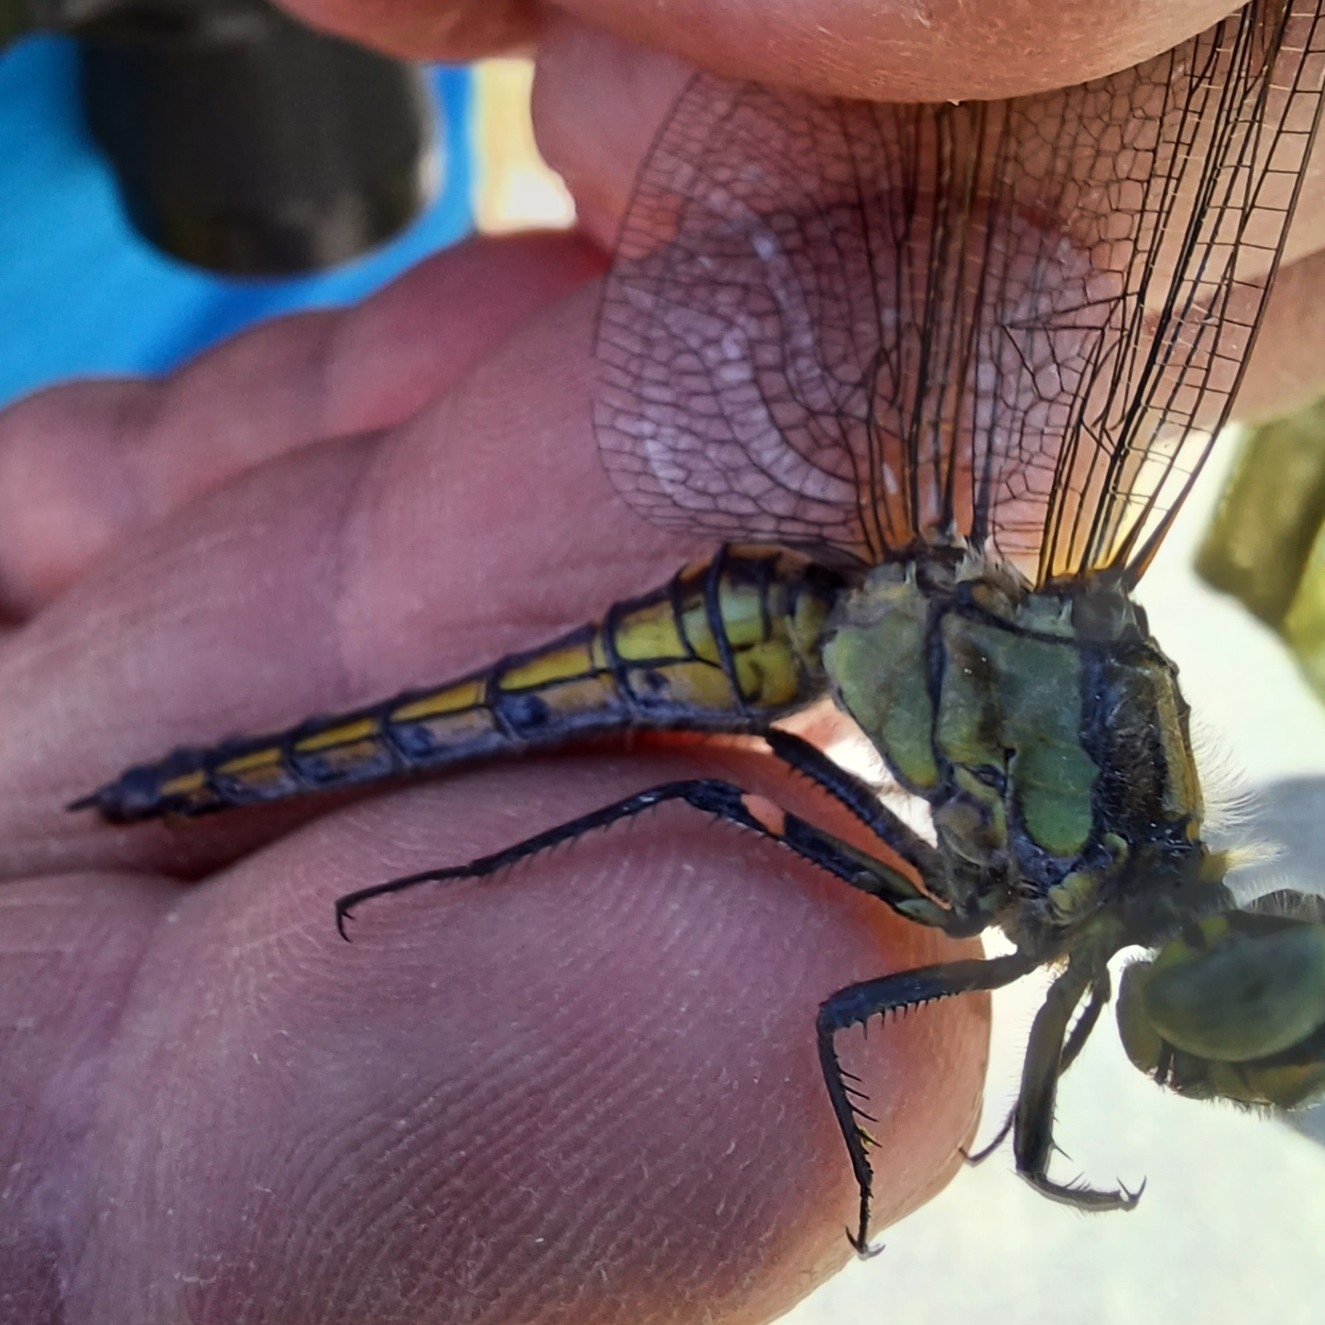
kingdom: Animalia
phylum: Arthropoda
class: Insecta
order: Odonata
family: Libellulidae
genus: Orthetrum
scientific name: Orthetrum cancellatum
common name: Black-tailed skimmer
